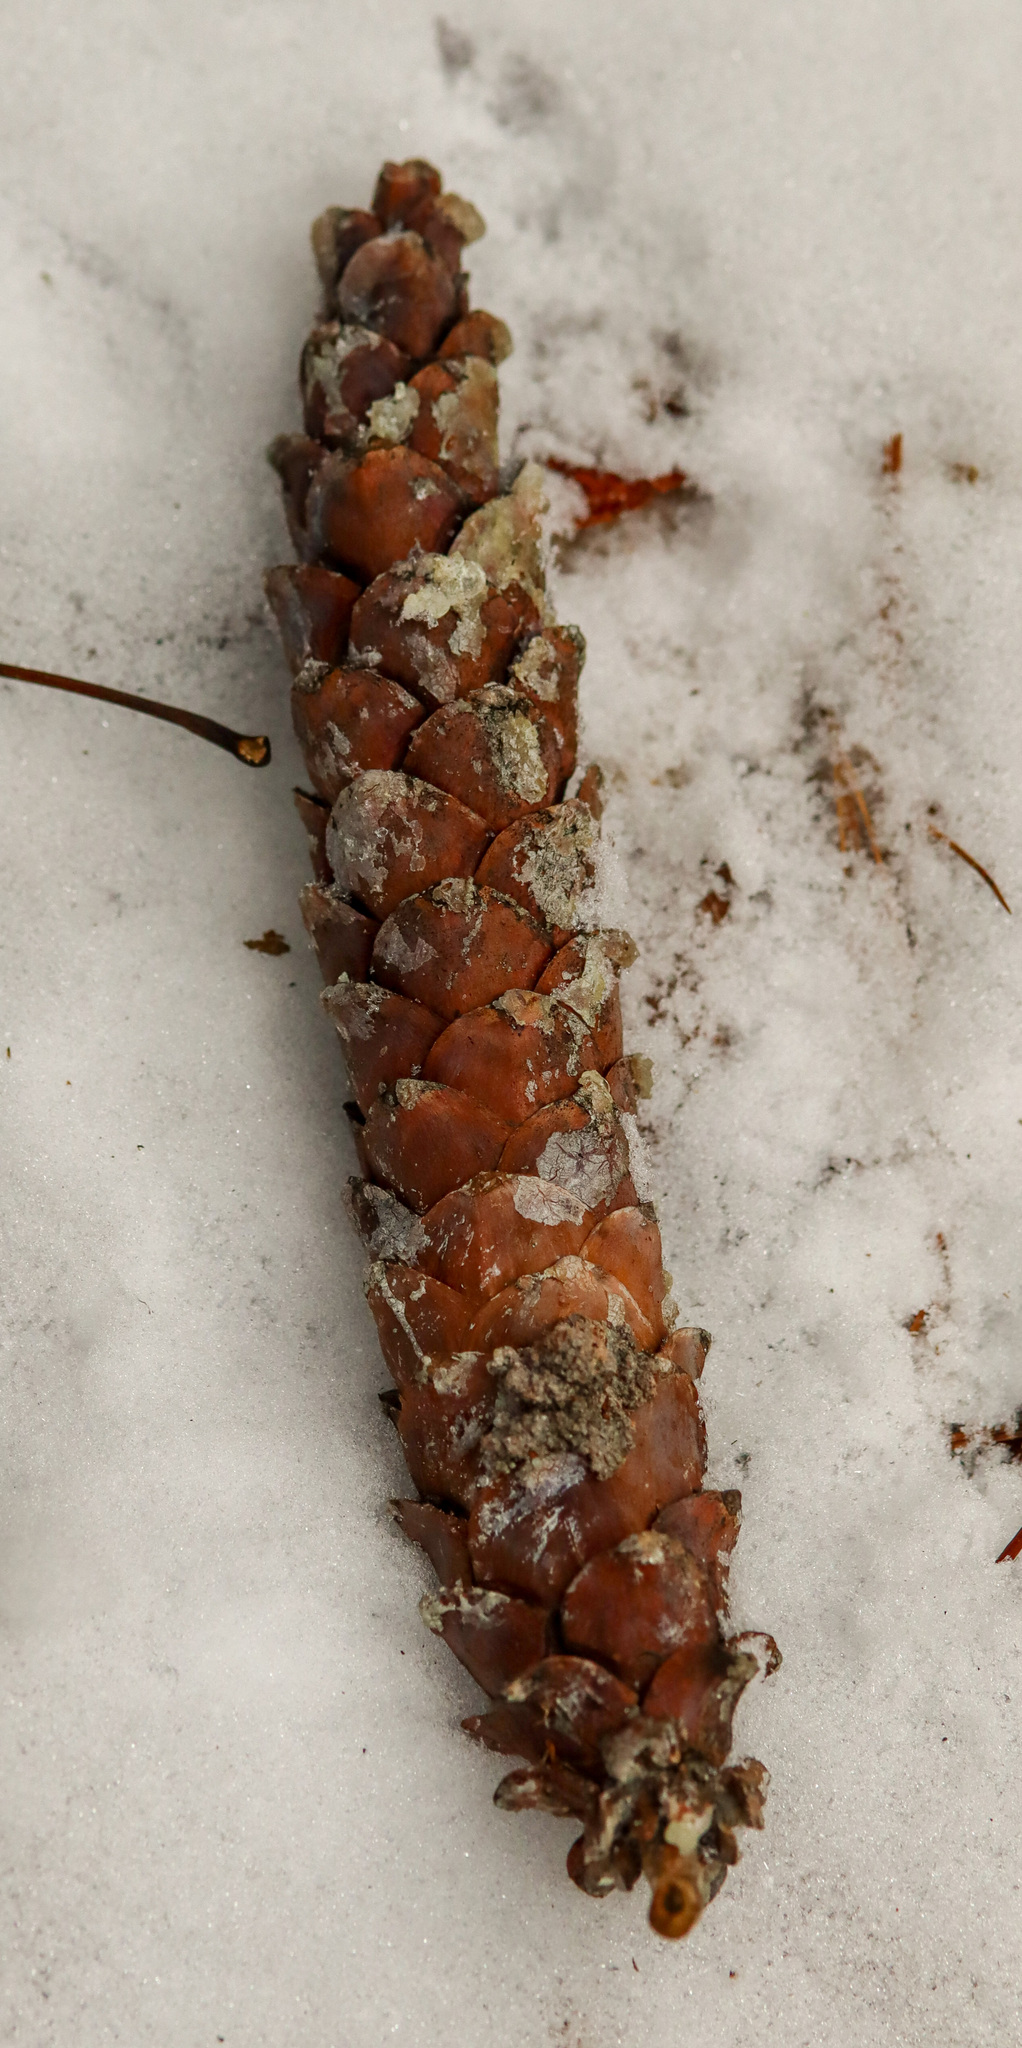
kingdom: Plantae
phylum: Tracheophyta
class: Pinopsida
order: Pinales
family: Pinaceae
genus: Pinus
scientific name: Pinus strobus
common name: Weymouth pine
